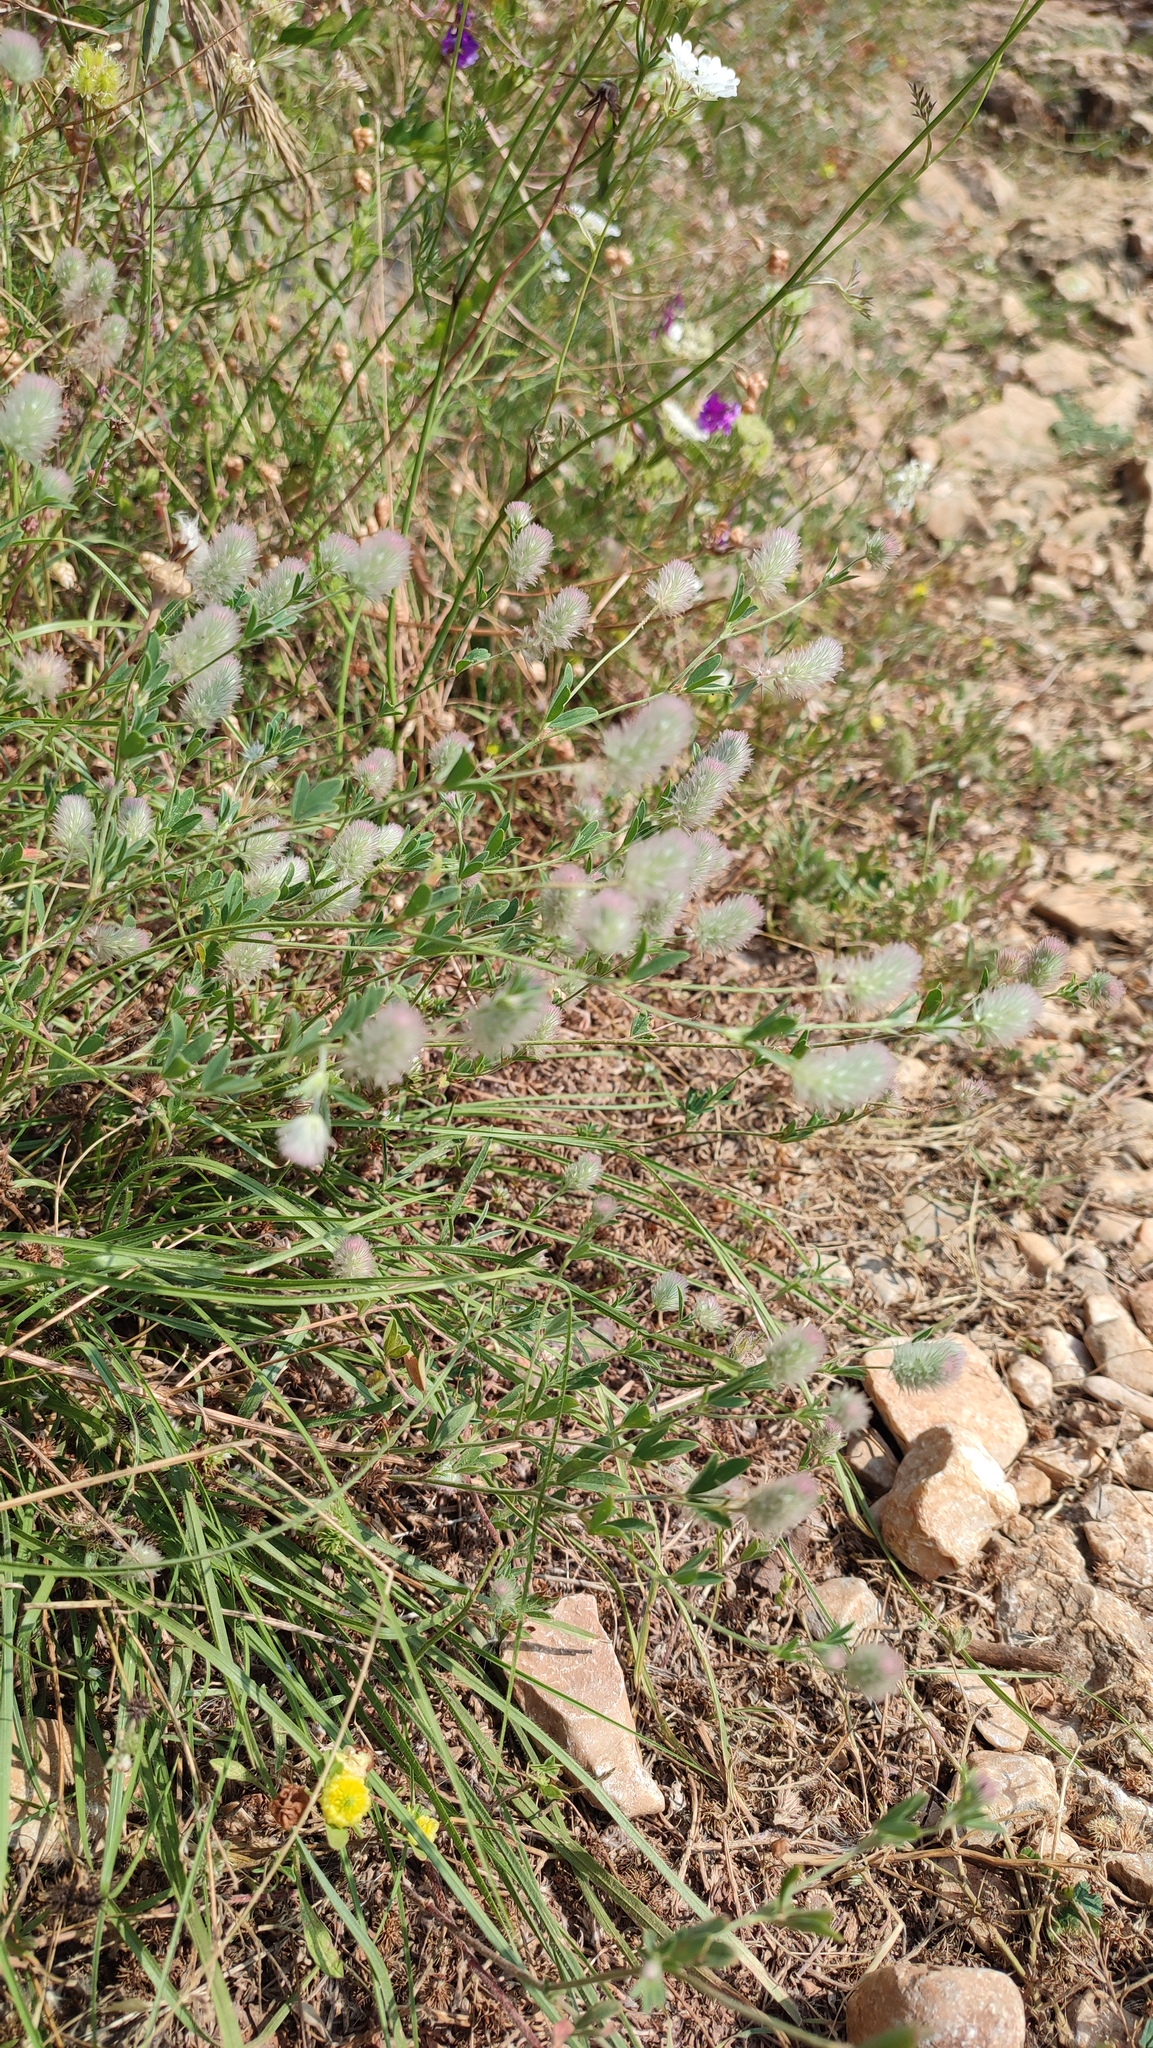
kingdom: Plantae
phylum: Tracheophyta
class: Magnoliopsida
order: Fabales
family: Fabaceae
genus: Trifolium
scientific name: Trifolium arvense
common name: Hare's-foot clover
